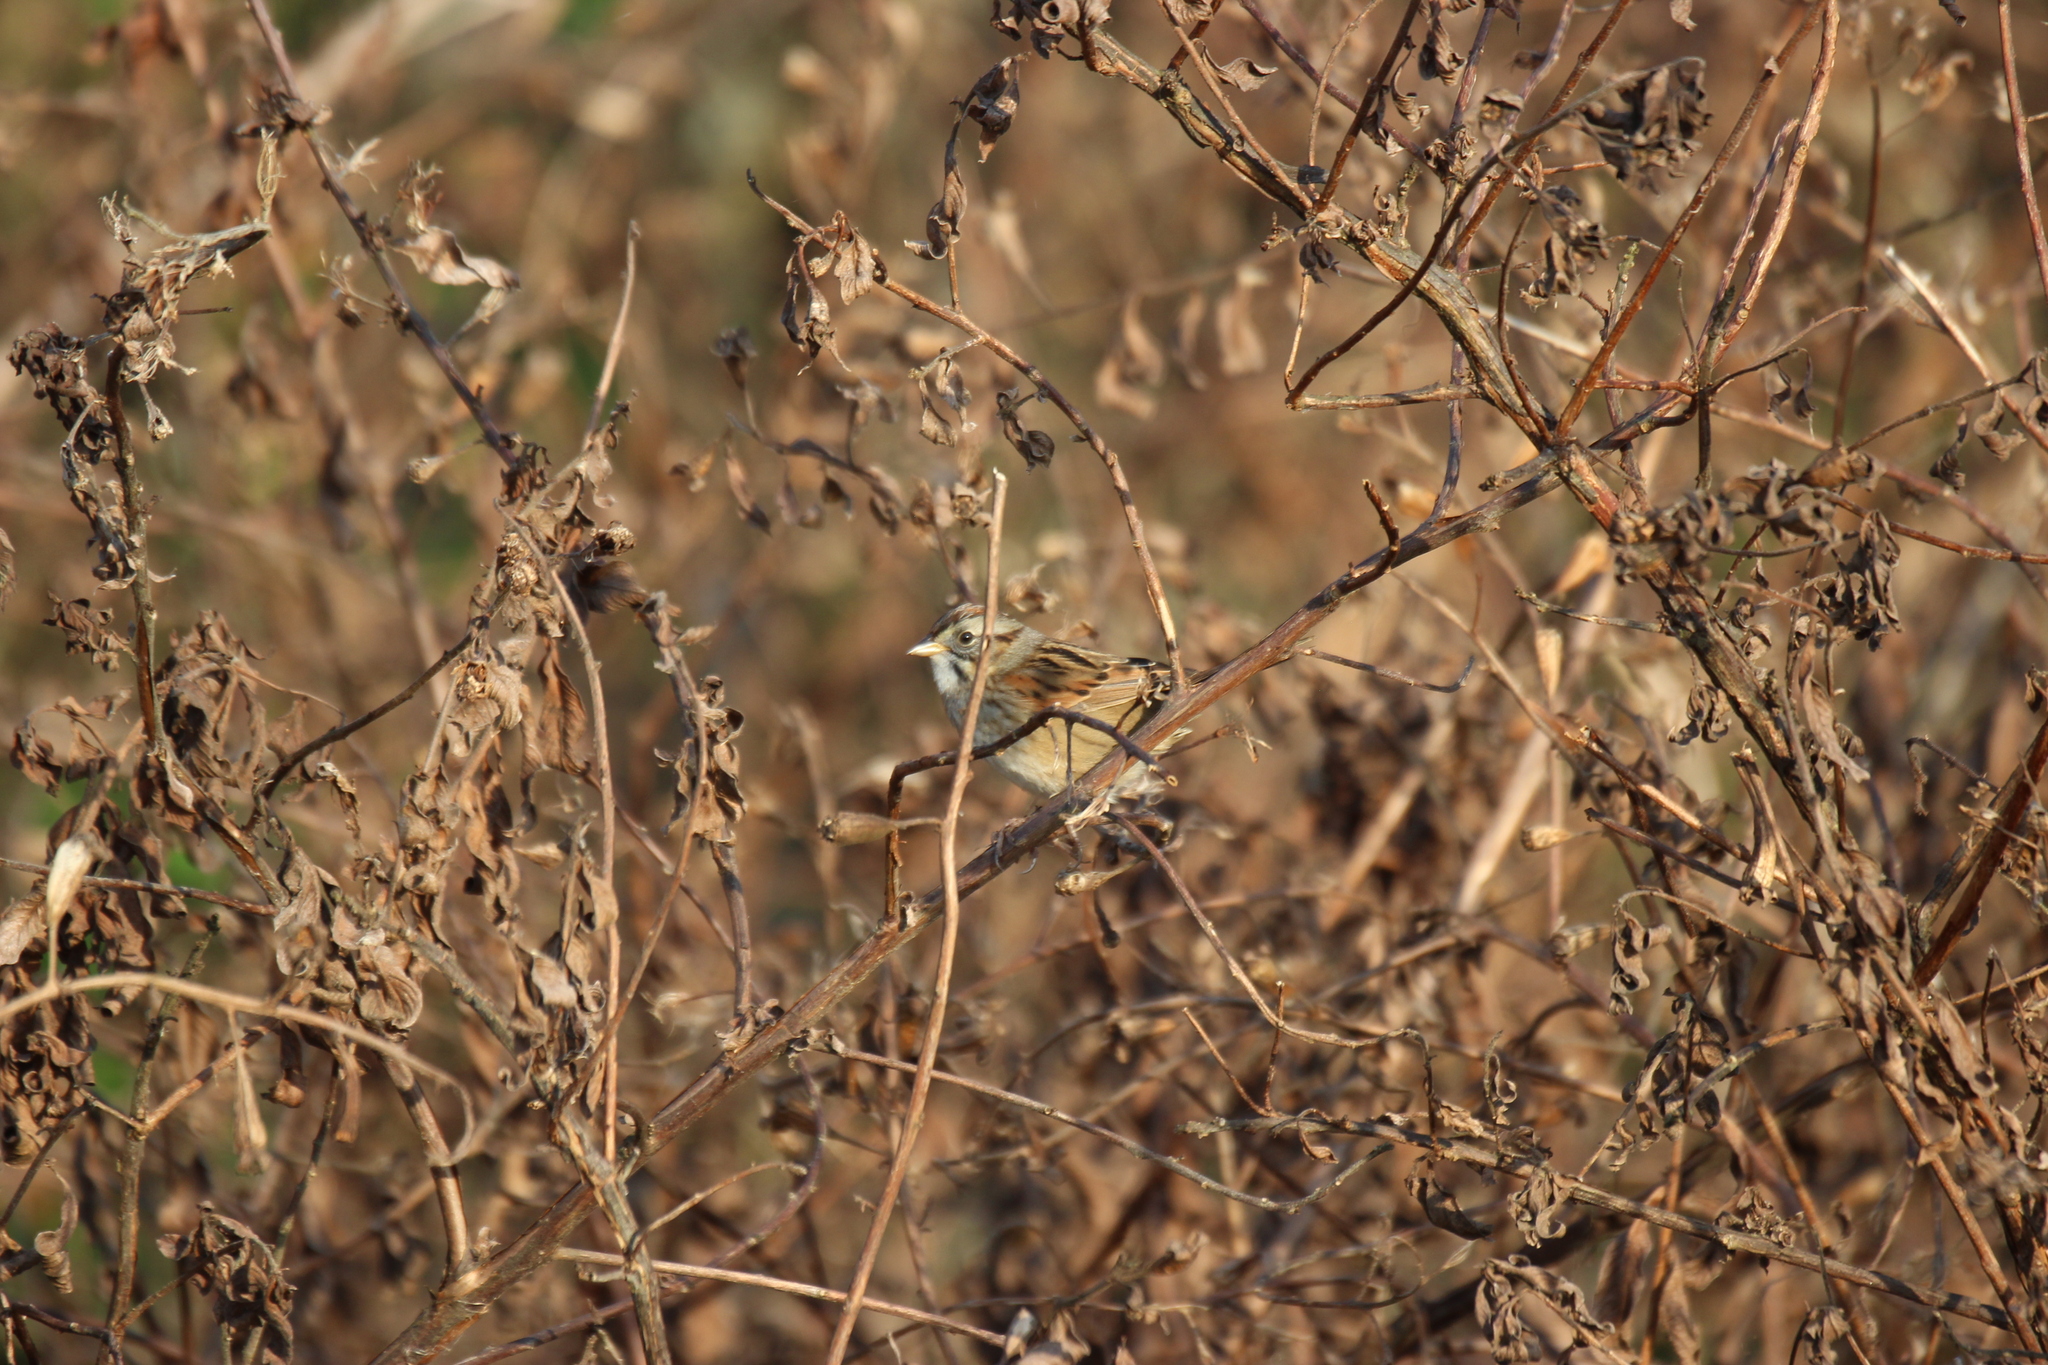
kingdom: Animalia
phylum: Chordata
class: Aves
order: Passeriformes
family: Passerellidae
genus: Melospiza
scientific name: Melospiza georgiana
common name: Swamp sparrow
